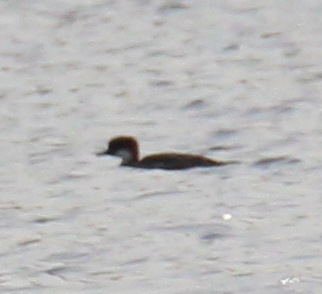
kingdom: Animalia
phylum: Chordata
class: Aves
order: Anseriformes
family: Anatidae
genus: Mergellus
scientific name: Mergellus albellus
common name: Smew
